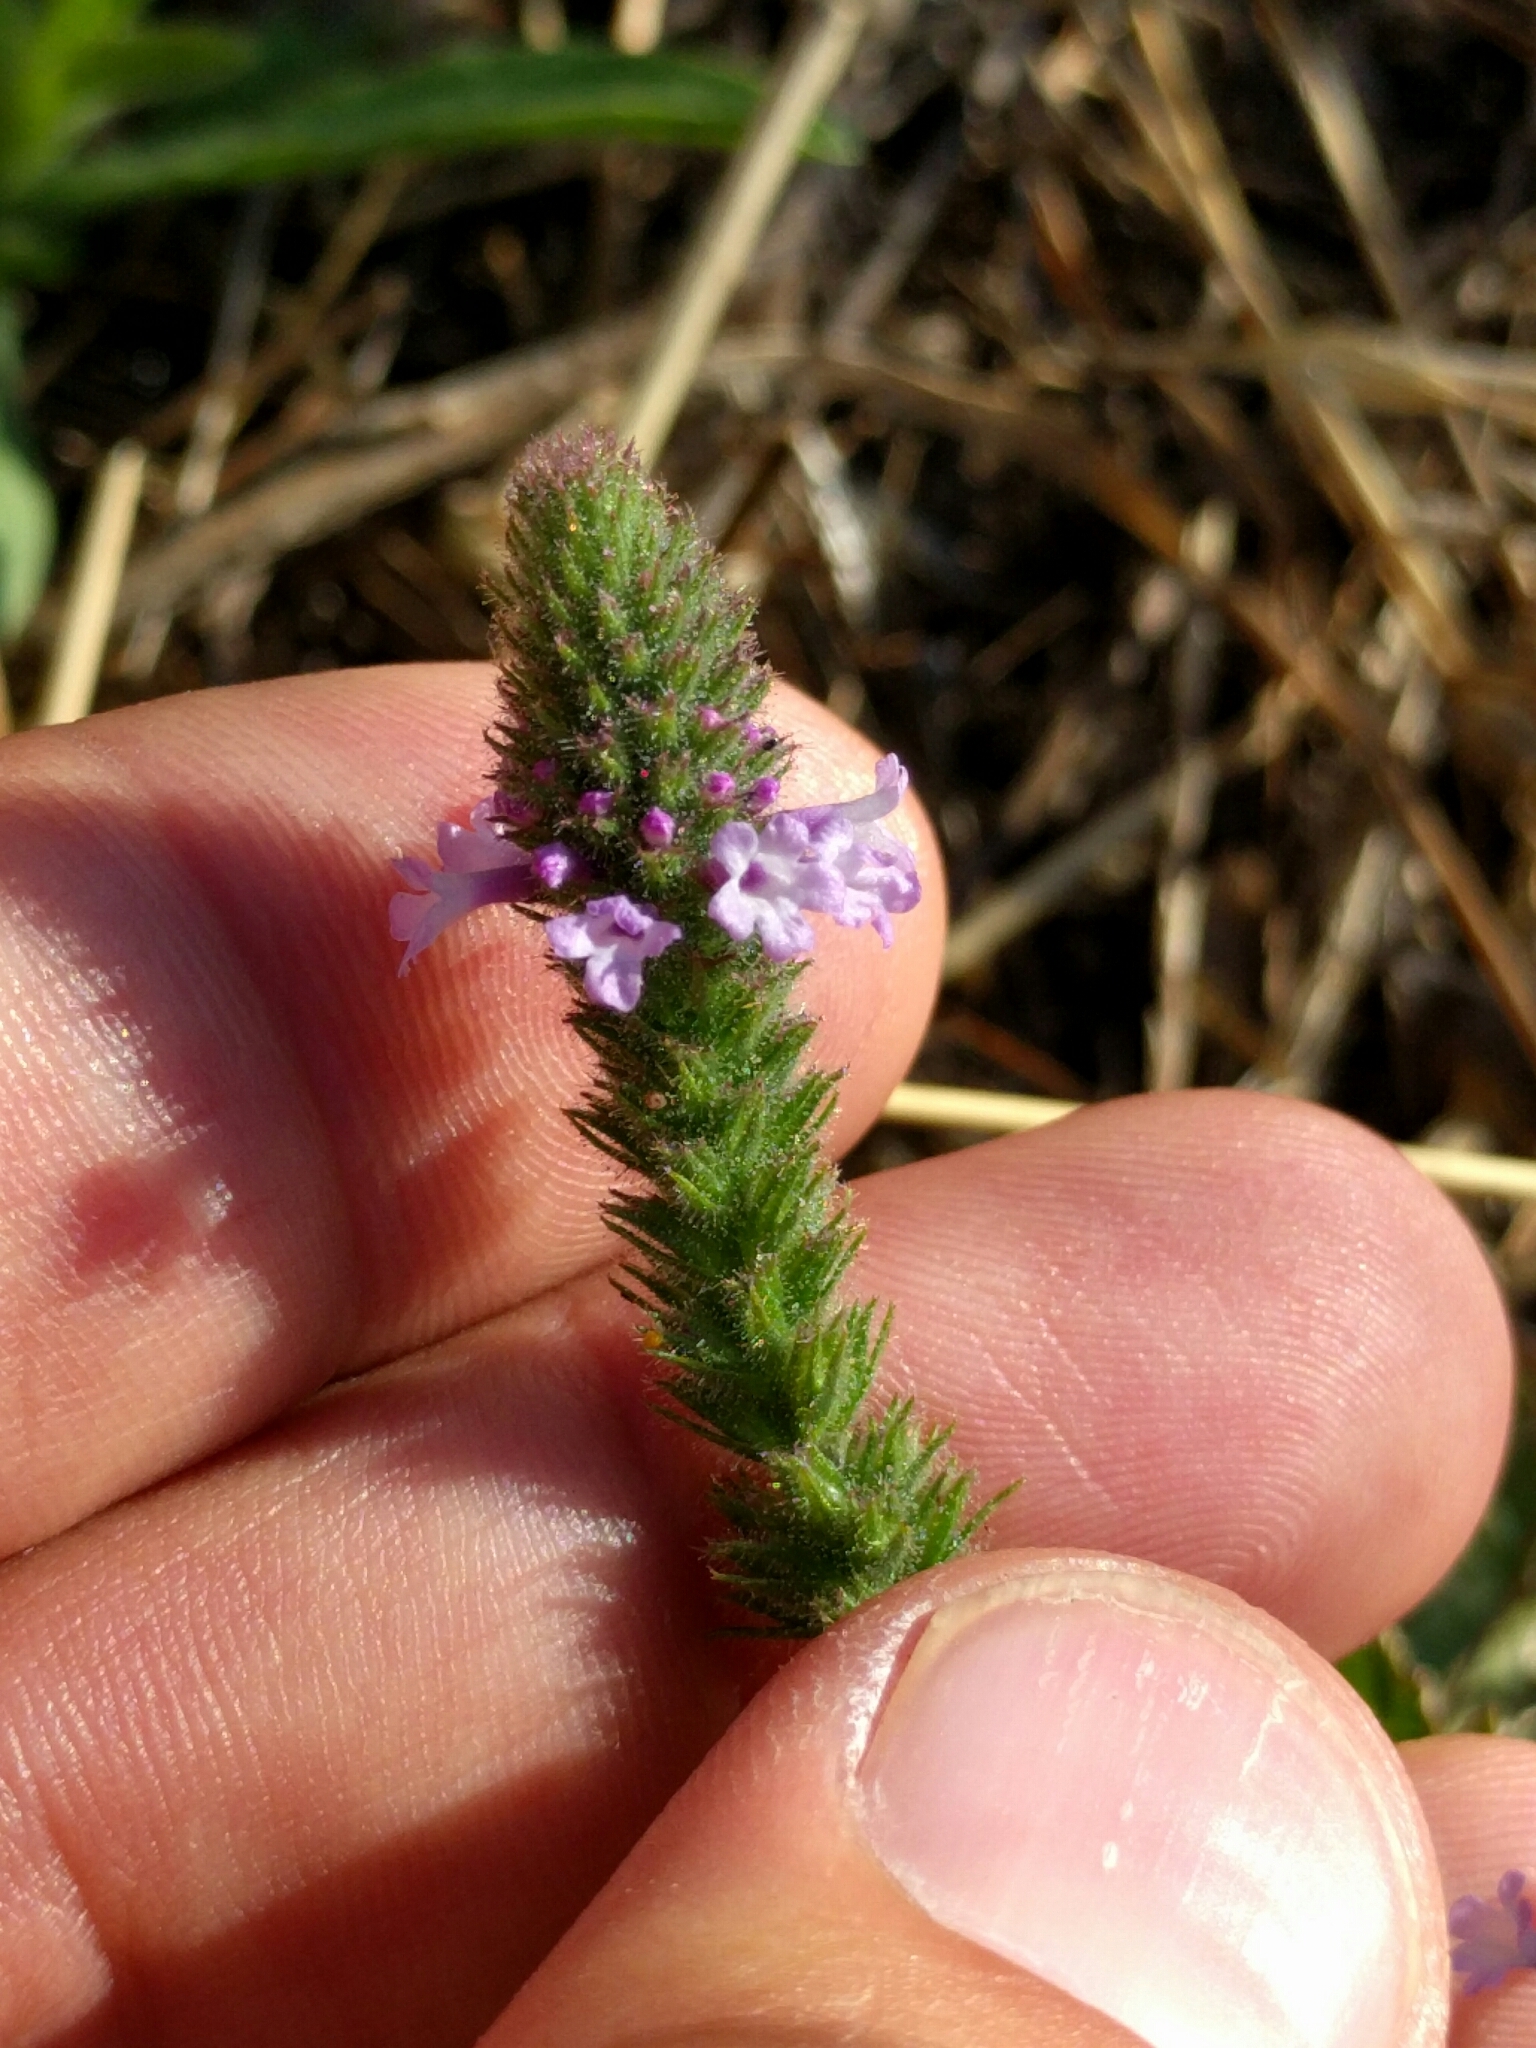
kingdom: Plantae
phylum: Tracheophyta
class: Magnoliopsida
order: Lamiales
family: Verbenaceae
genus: Verbena
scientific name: Verbena lasiostachys
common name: Vervain
